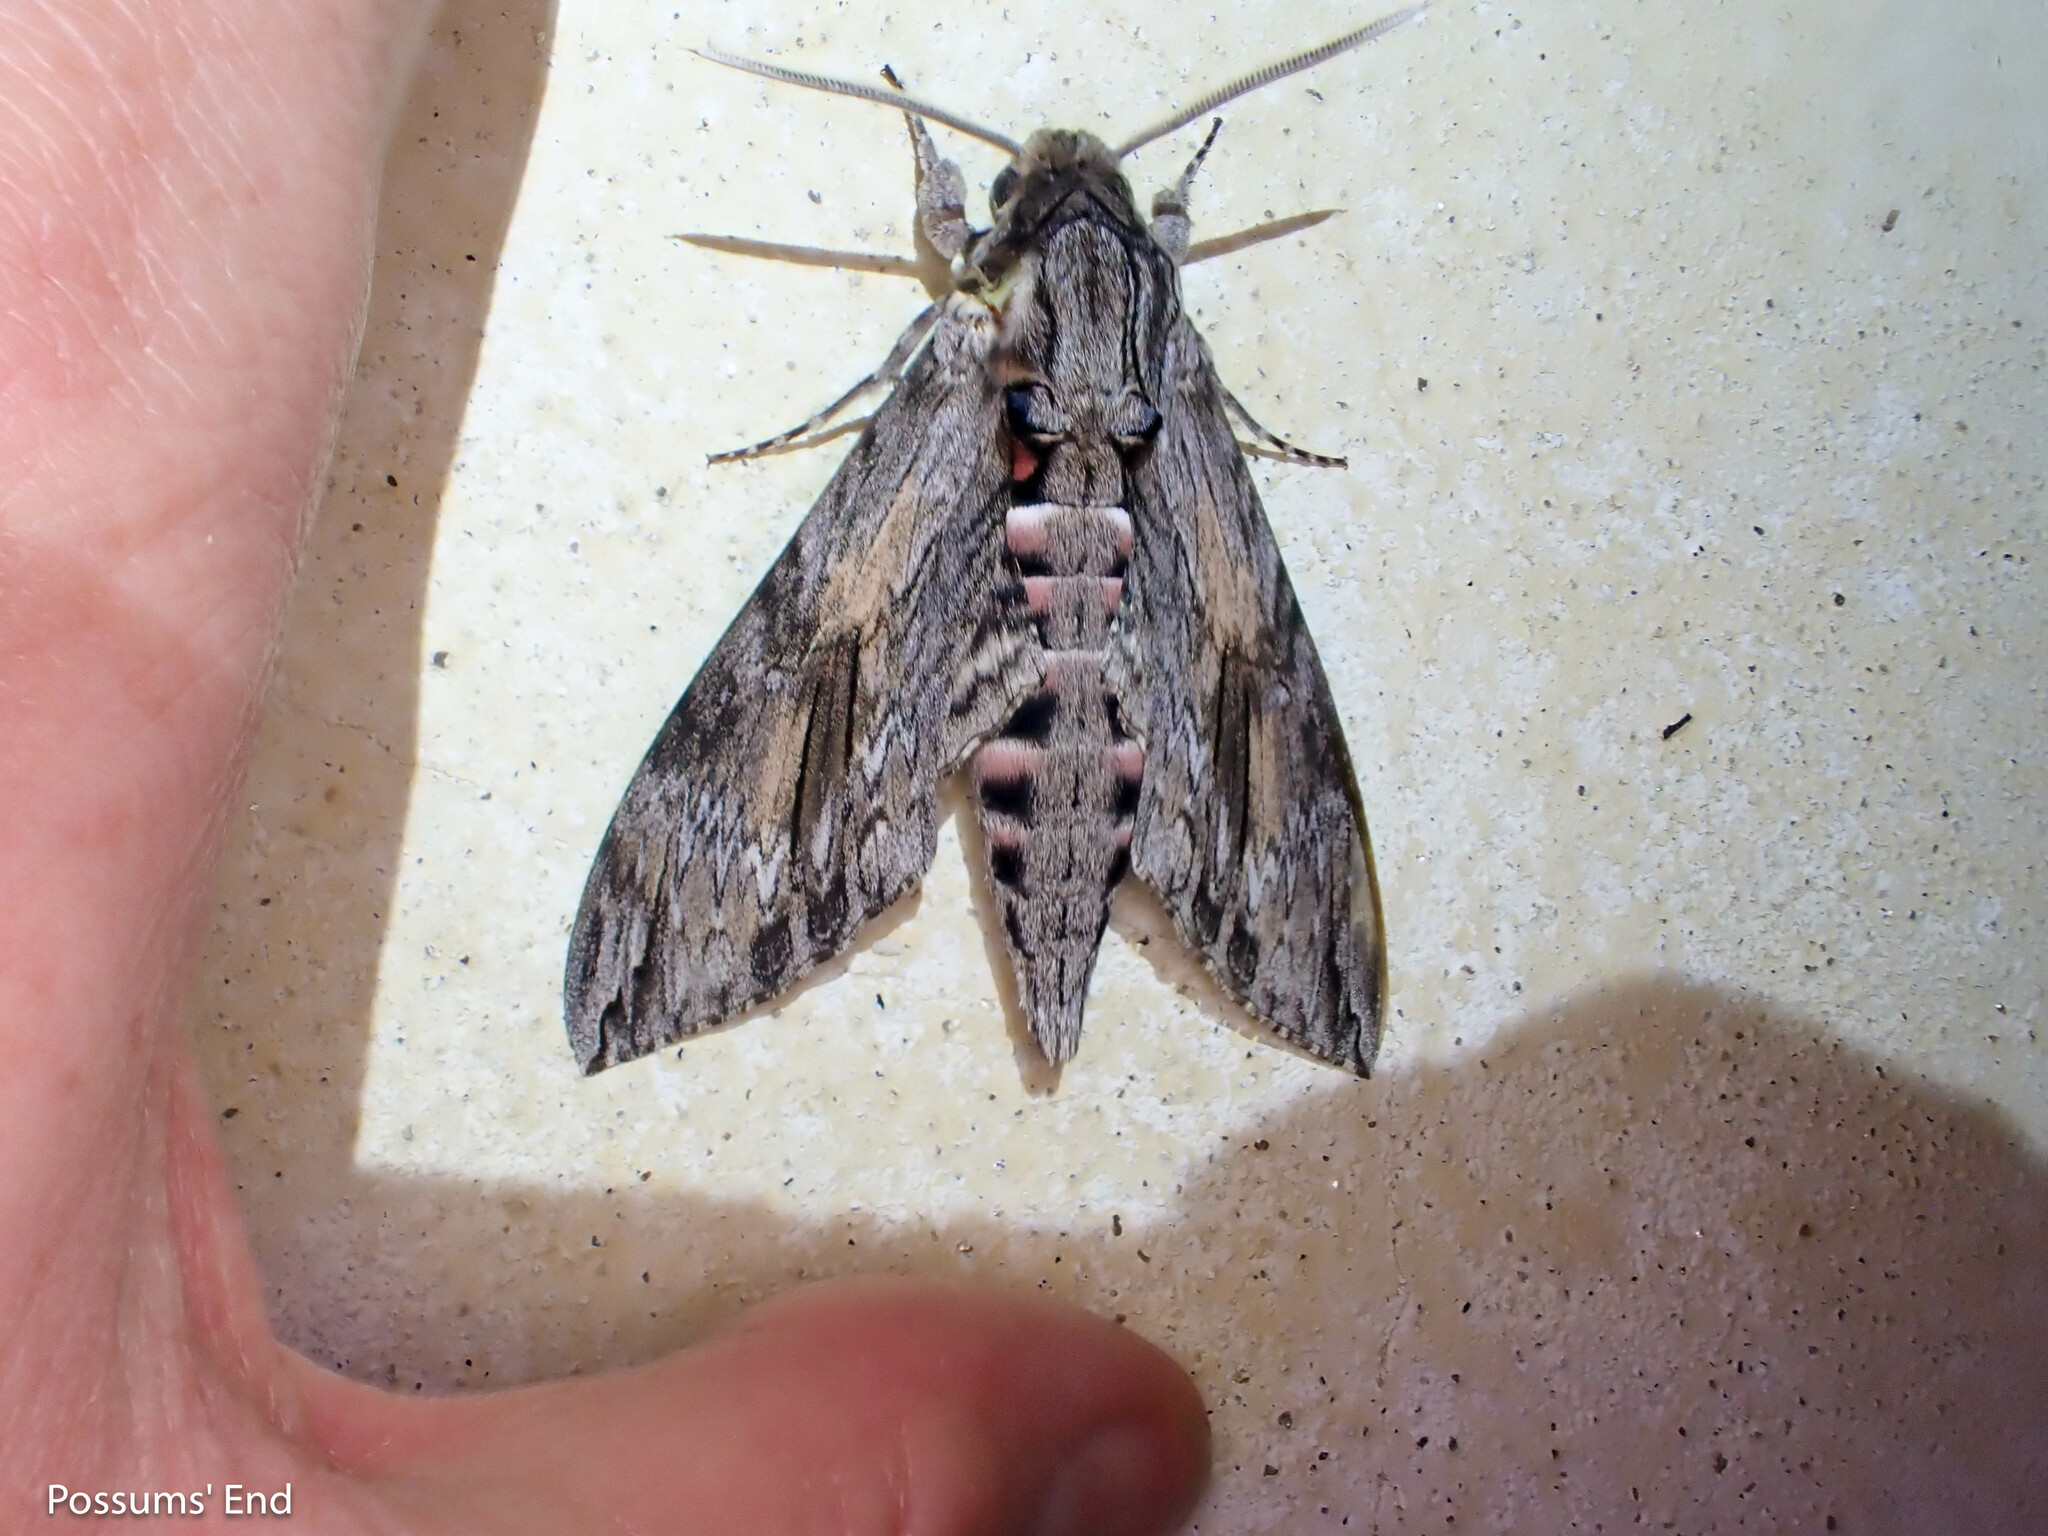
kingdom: Animalia
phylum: Arthropoda
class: Insecta
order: Lepidoptera
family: Sphingidae
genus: Agrius
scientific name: Agrius convolvuli
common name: Convolvulus hawkmoth
